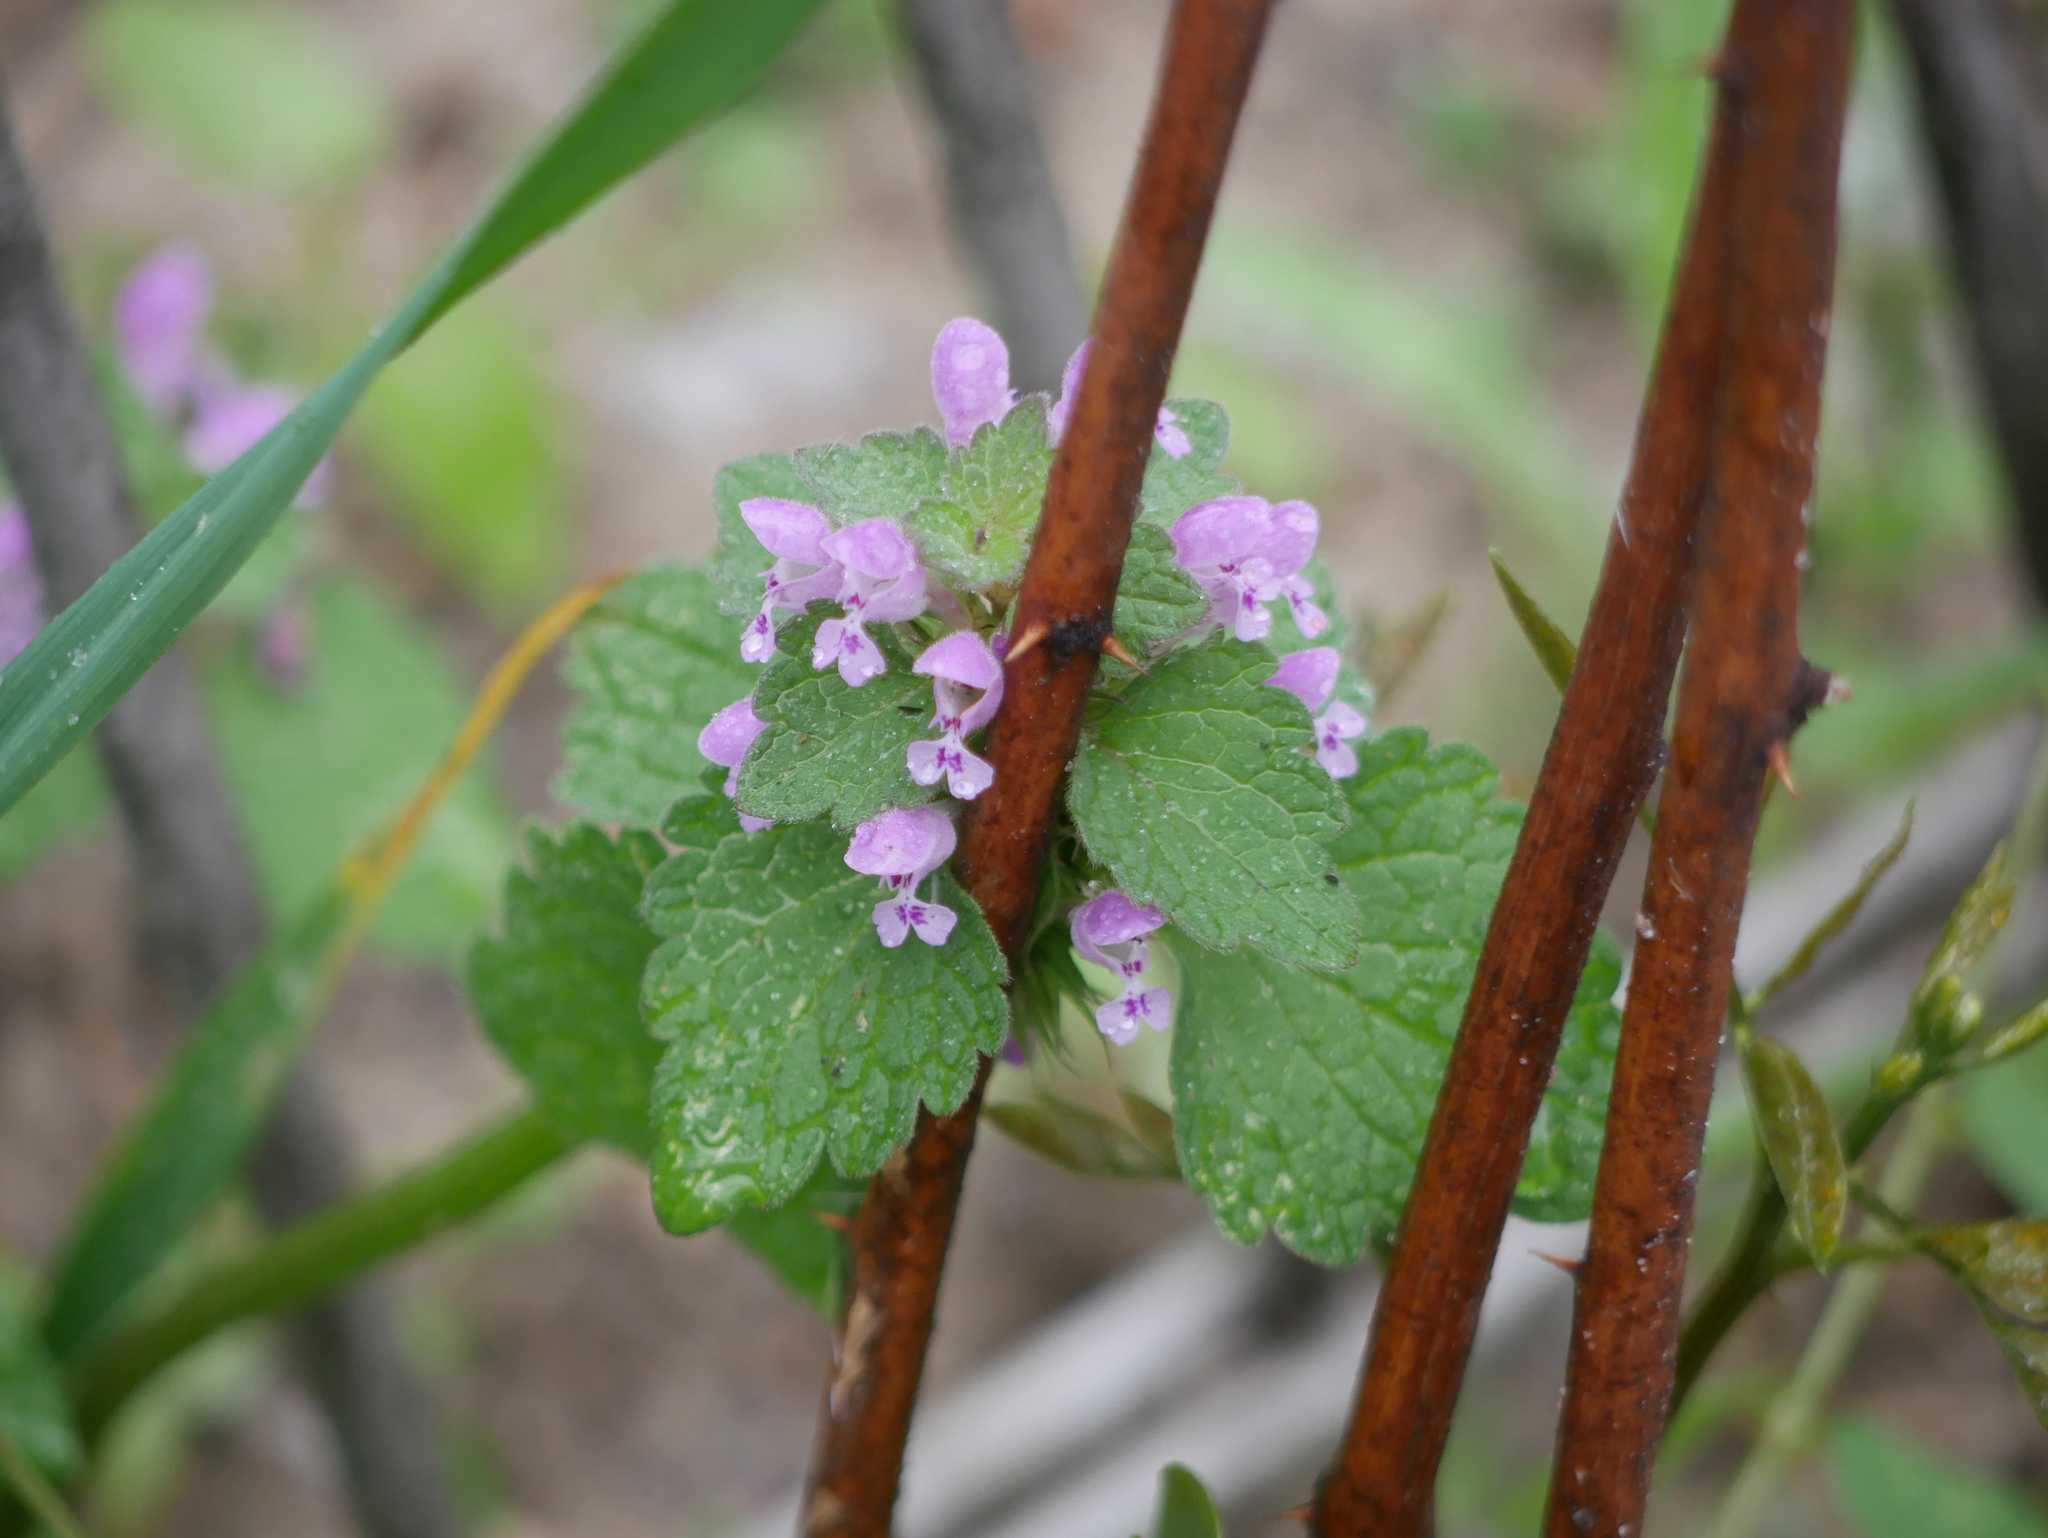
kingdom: Plantae
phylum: Tracheophyta
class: Magnoliopsida
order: Lamiales
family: Lamiaceae
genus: Lamium
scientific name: Lamium purpureum
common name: Red dead-nettle
